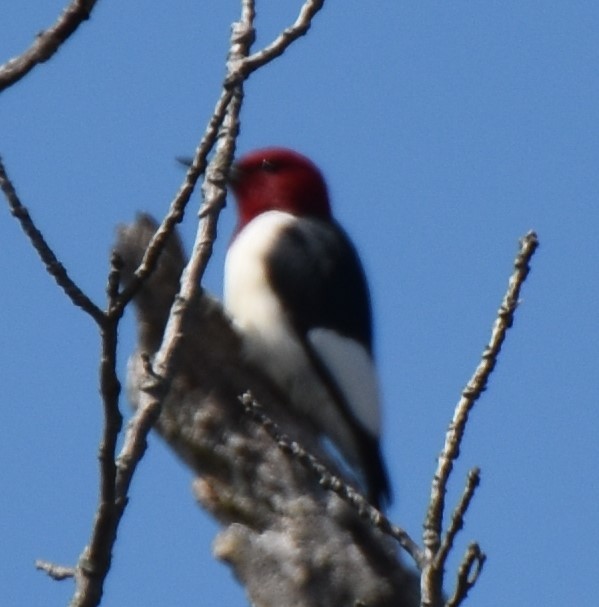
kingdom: Animalia
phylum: Chordata
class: Aves
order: Piciformes
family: Picidae
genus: Melanerpes
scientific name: Melanerpes erythrocephalus
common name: Red-headed woodpecker
